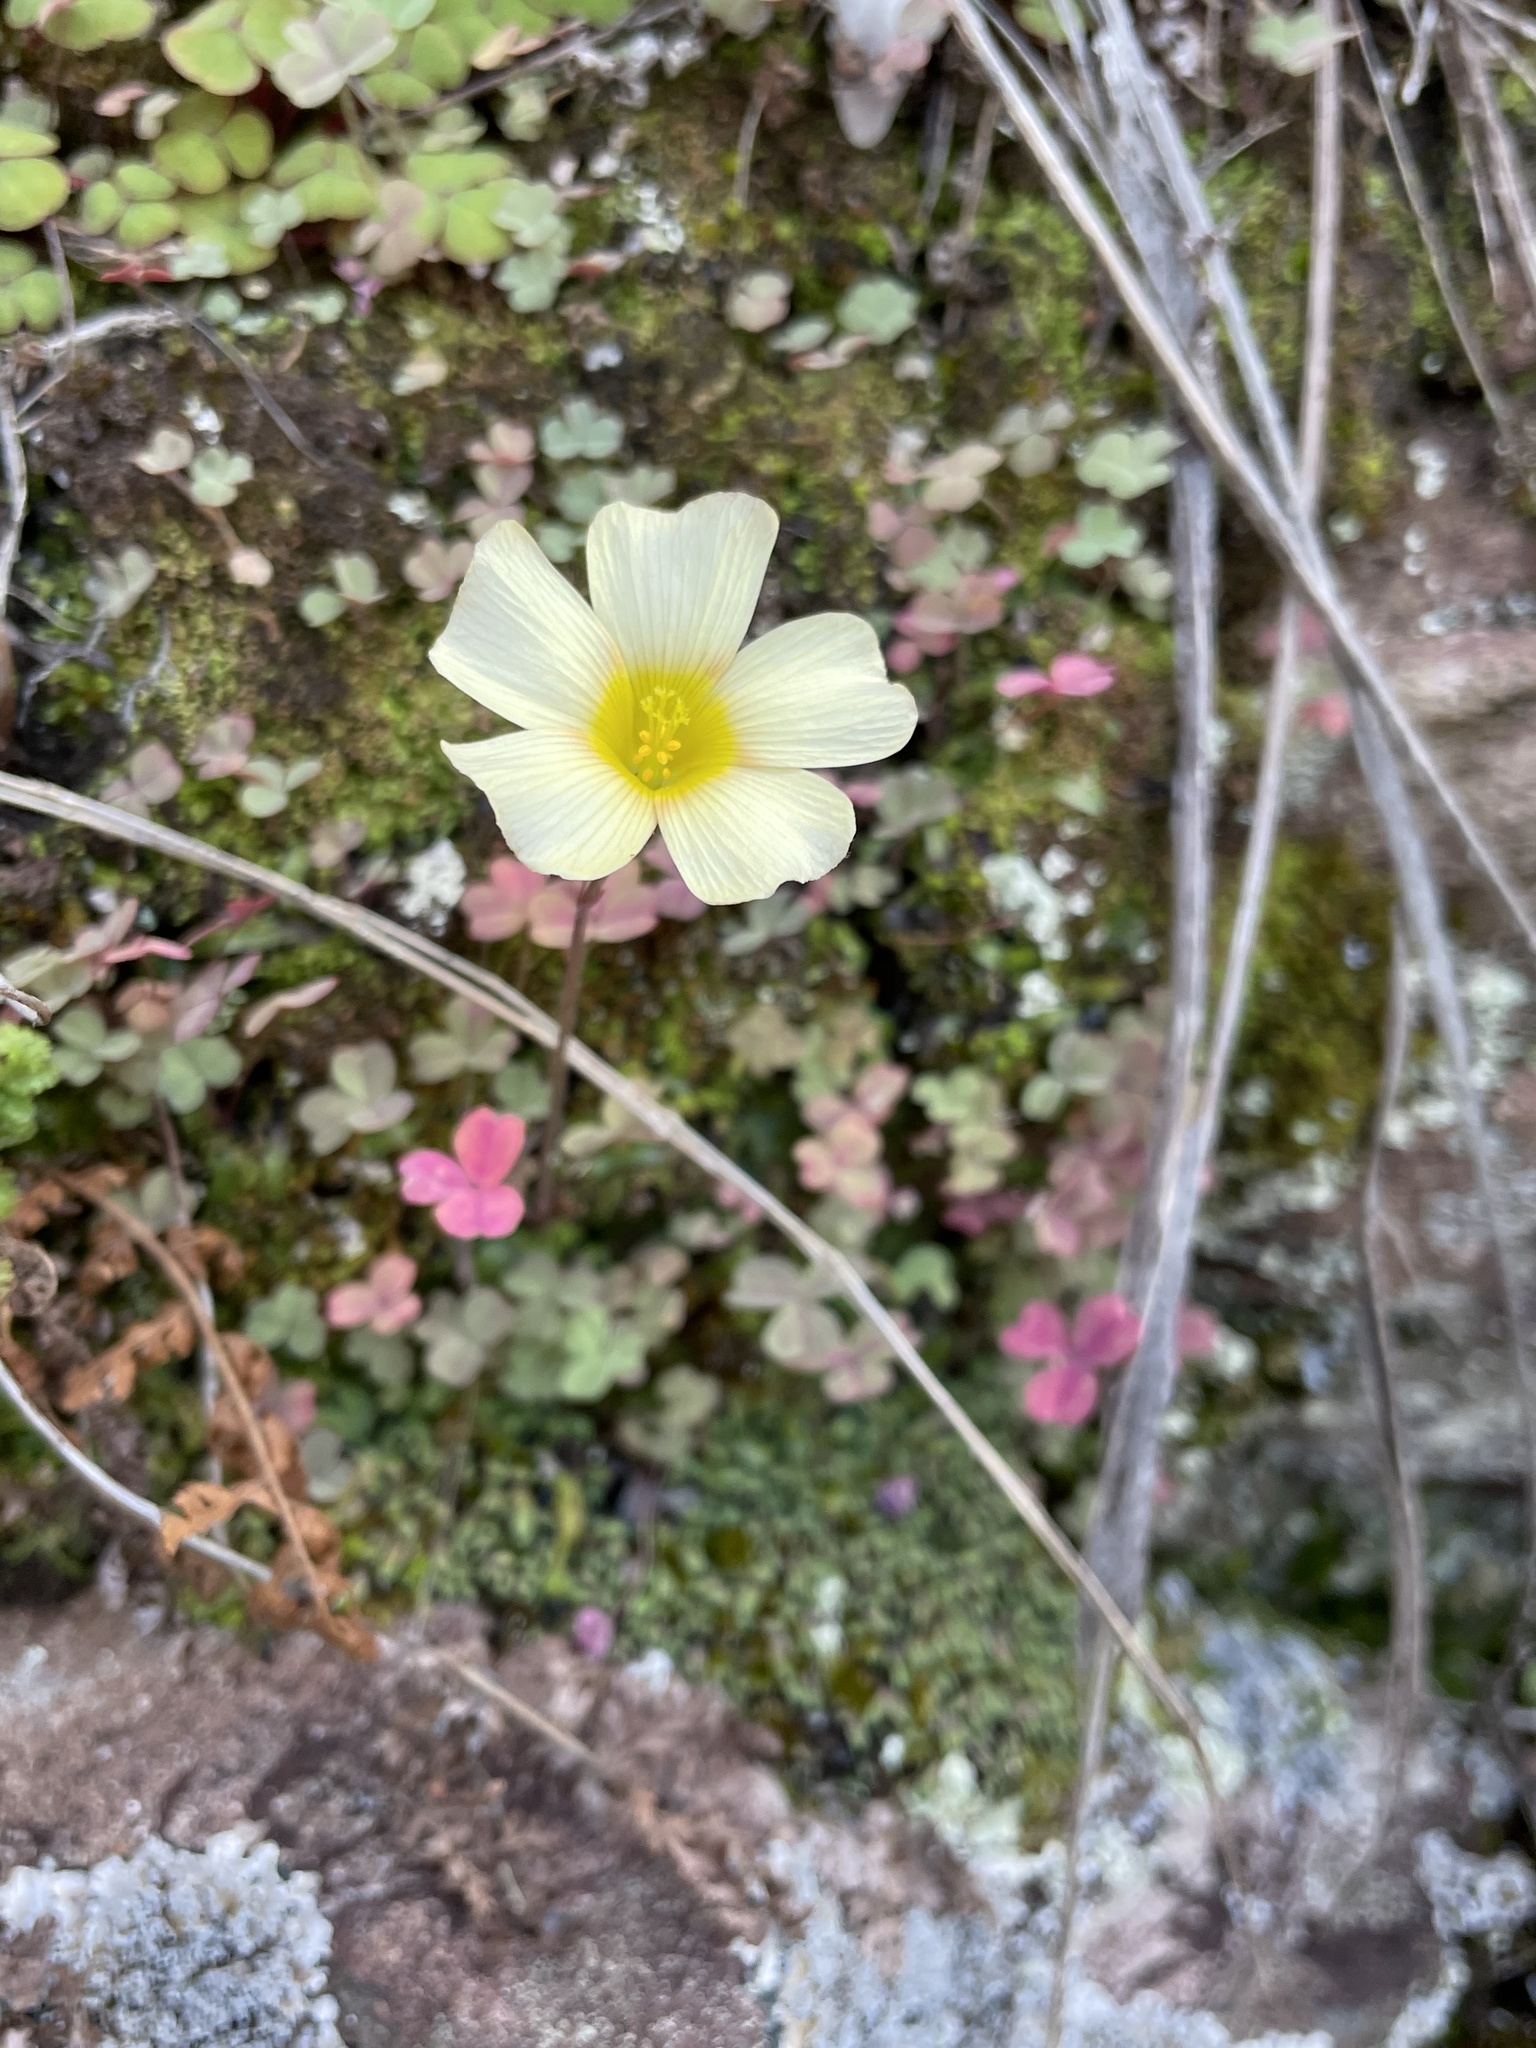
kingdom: Plantae
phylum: Tracheophyta
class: Magnoliopsida
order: Oxalidales
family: Oxalidaceae
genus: Oxalis
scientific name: Oxalis obtusa
